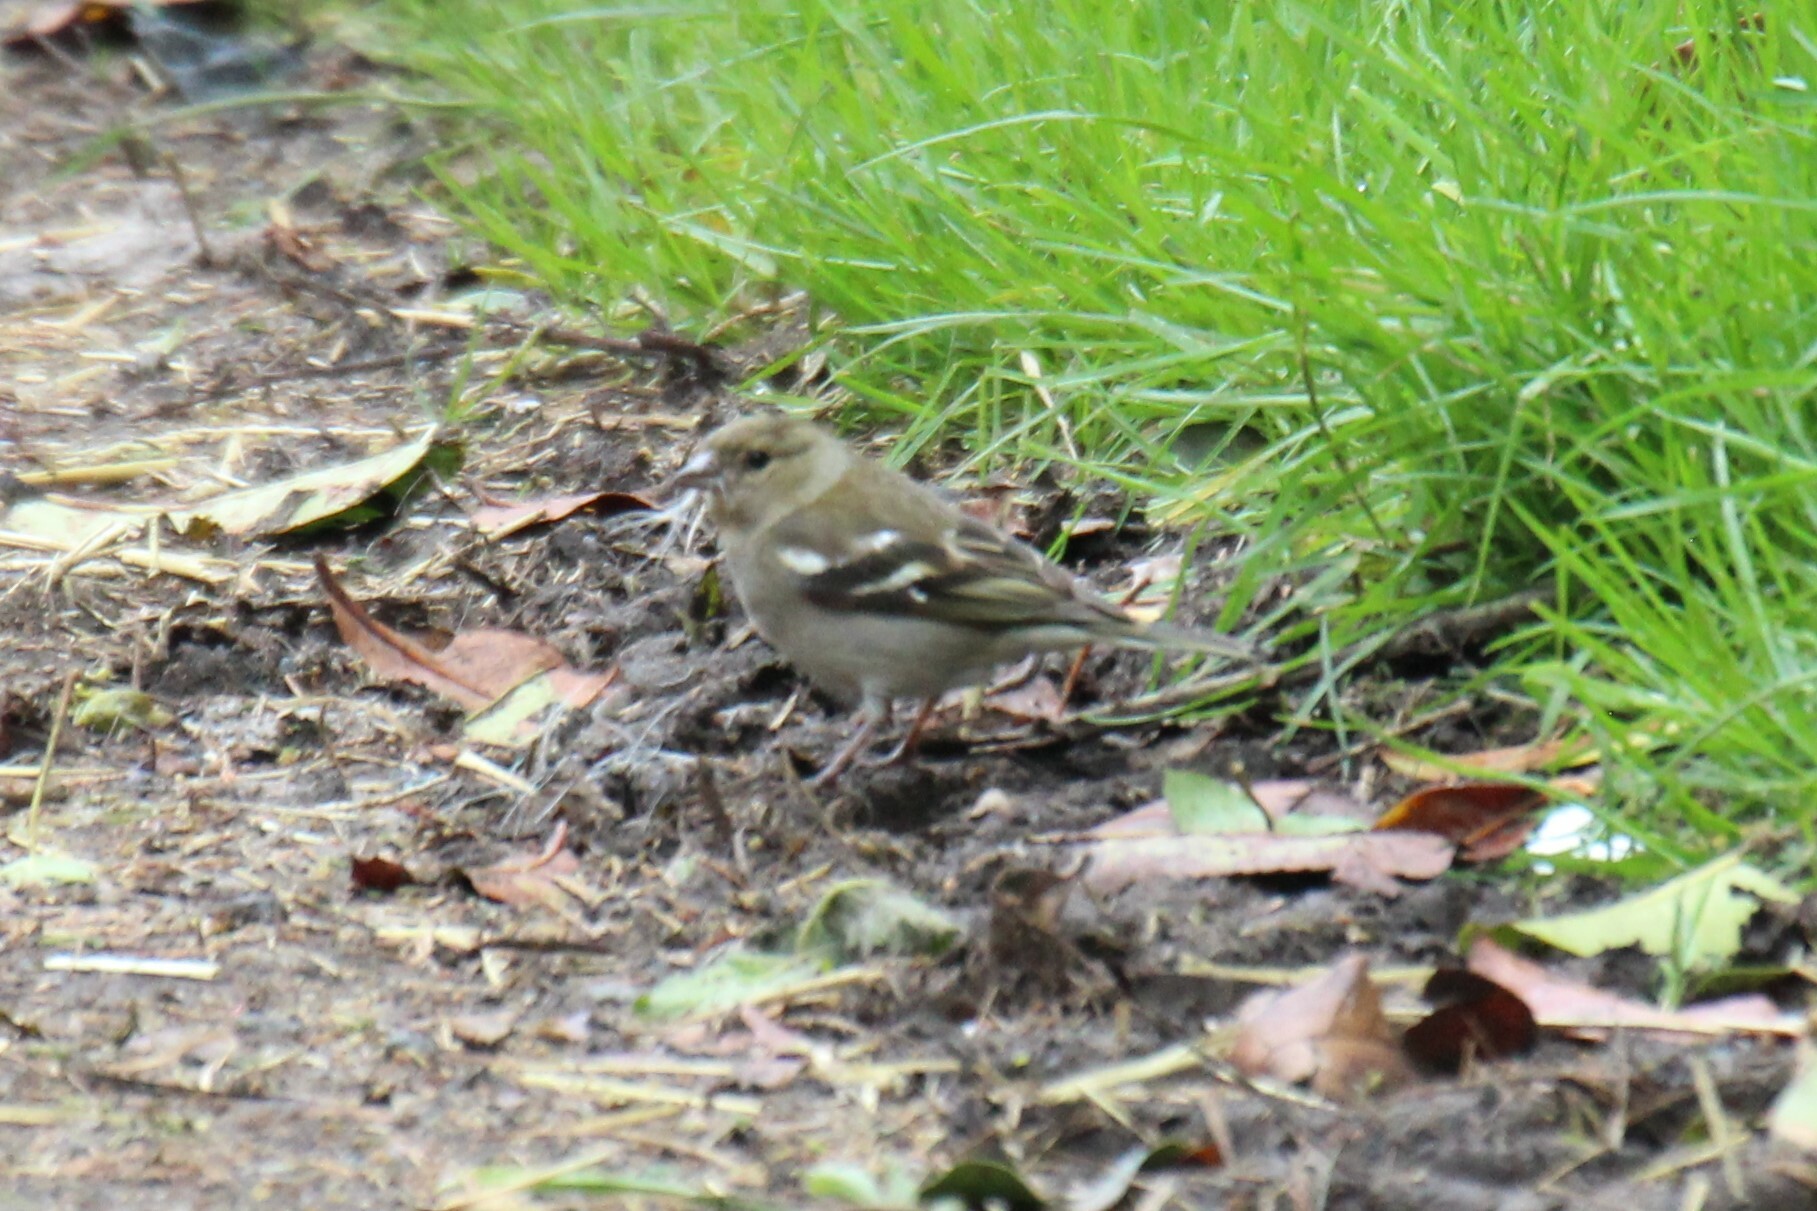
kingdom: Animalia
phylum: Chordata
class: Aves
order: Passeriformes
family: Fringillidae
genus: Fringilla
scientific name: Fringilla coelebs
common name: Common chaffinch
